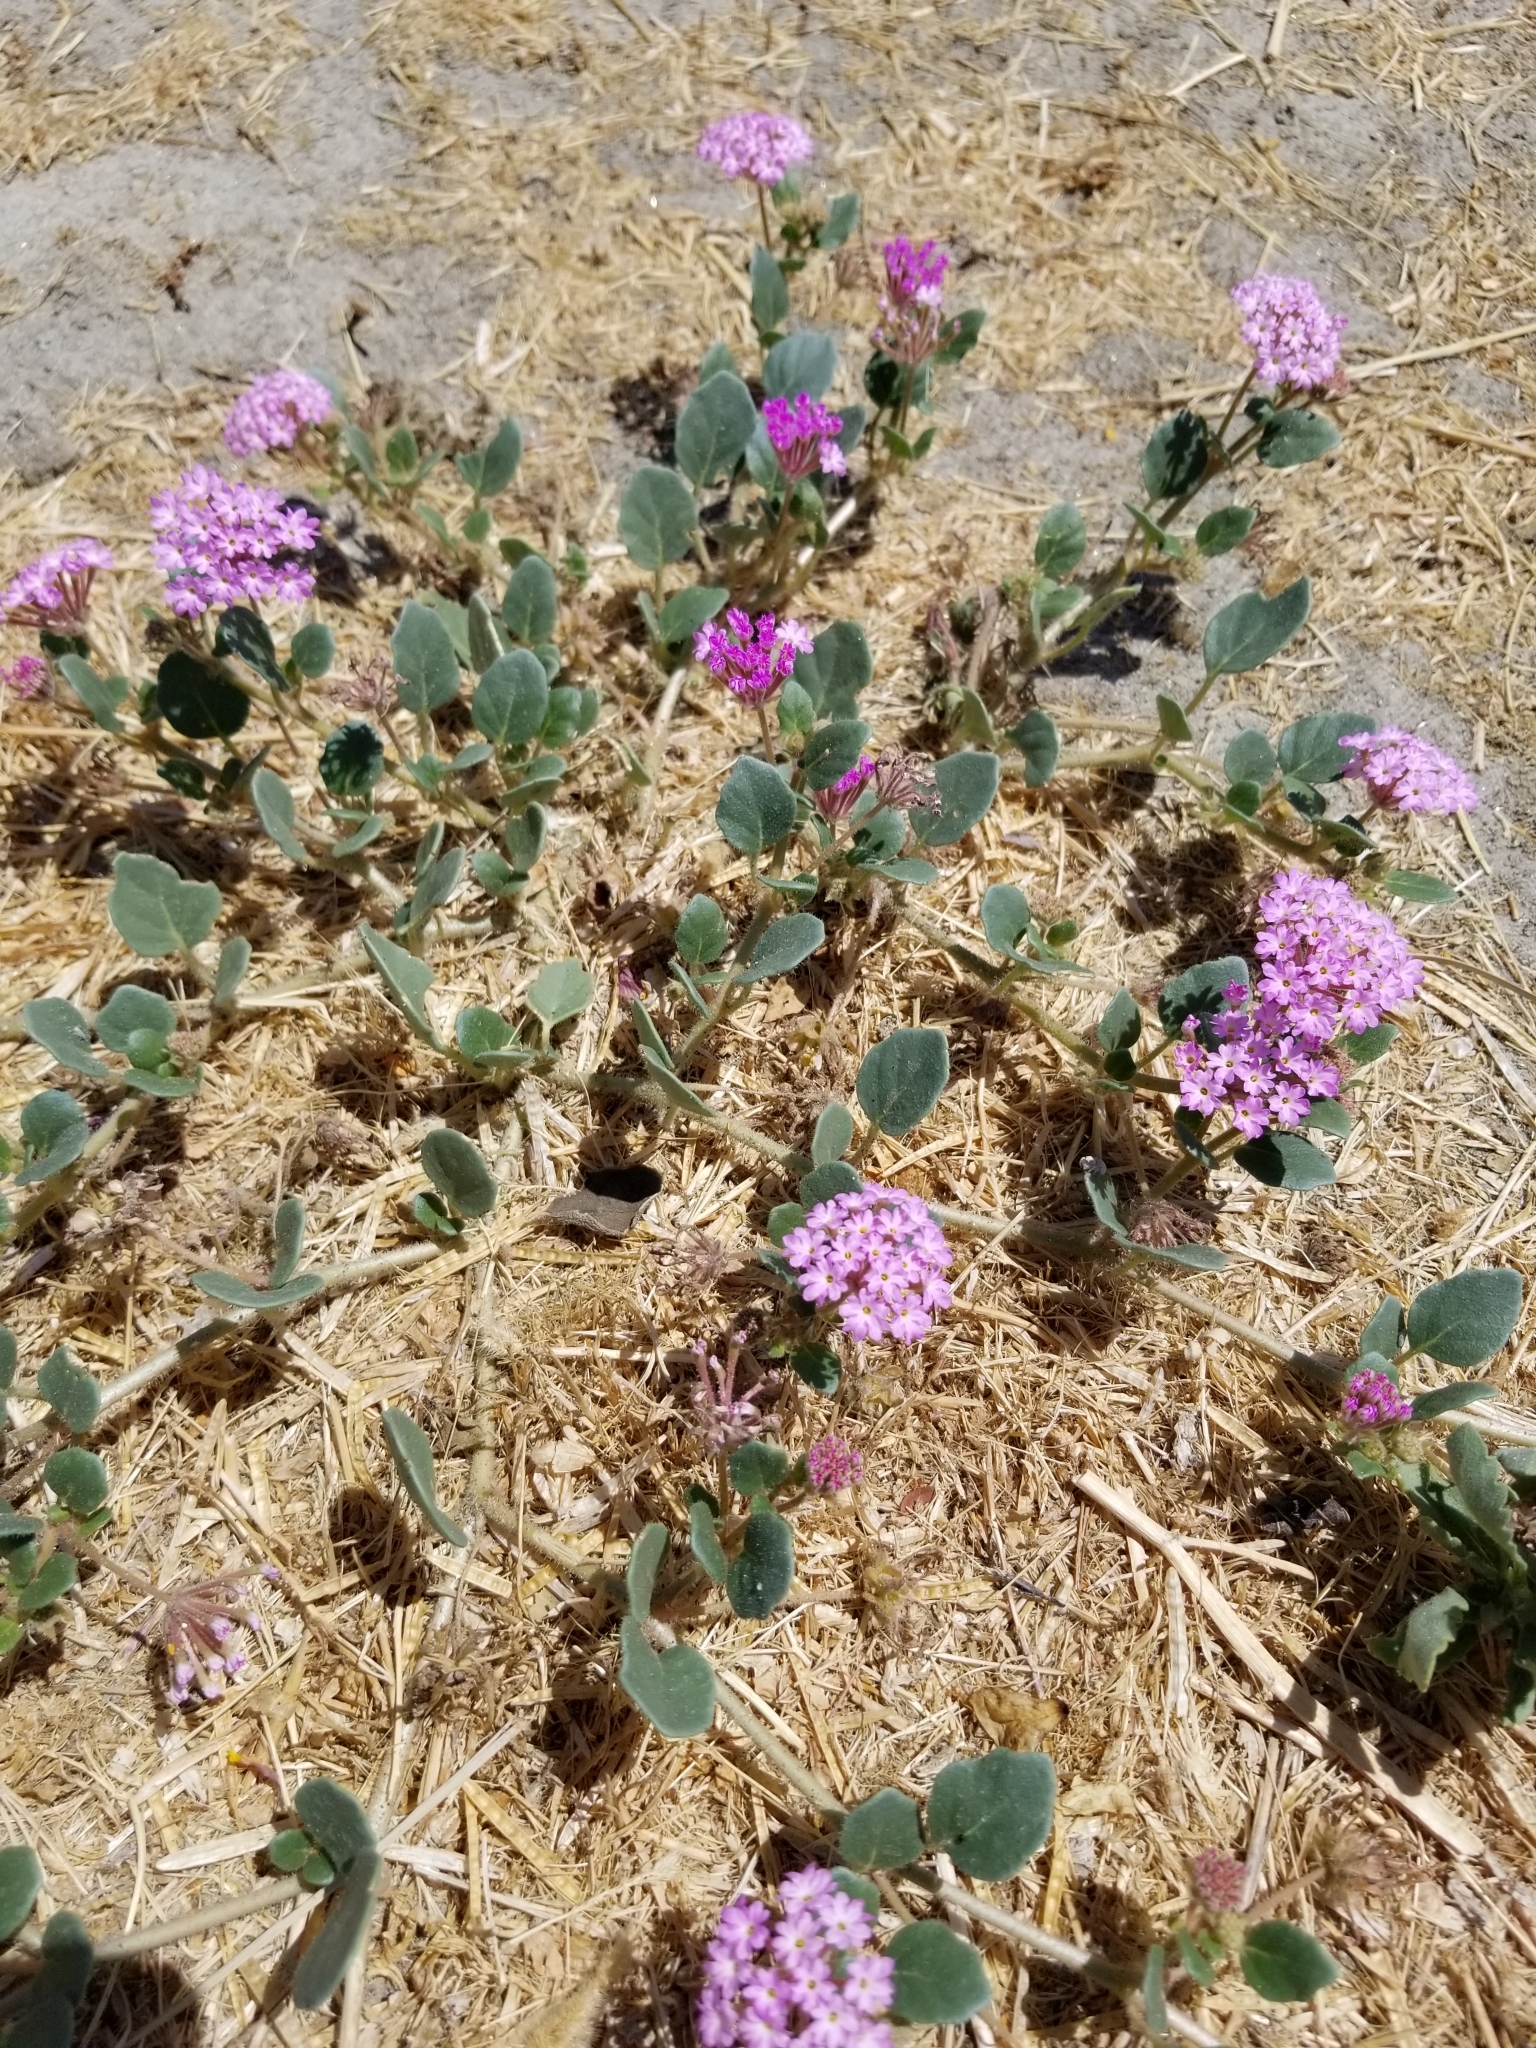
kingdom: Plantae
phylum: Tracheophyta
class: Magnoliopsida
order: Caryophyllales
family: Nyctaginaceae
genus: Abronia
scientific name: Abronia villosa
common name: Desert sand-verbena
